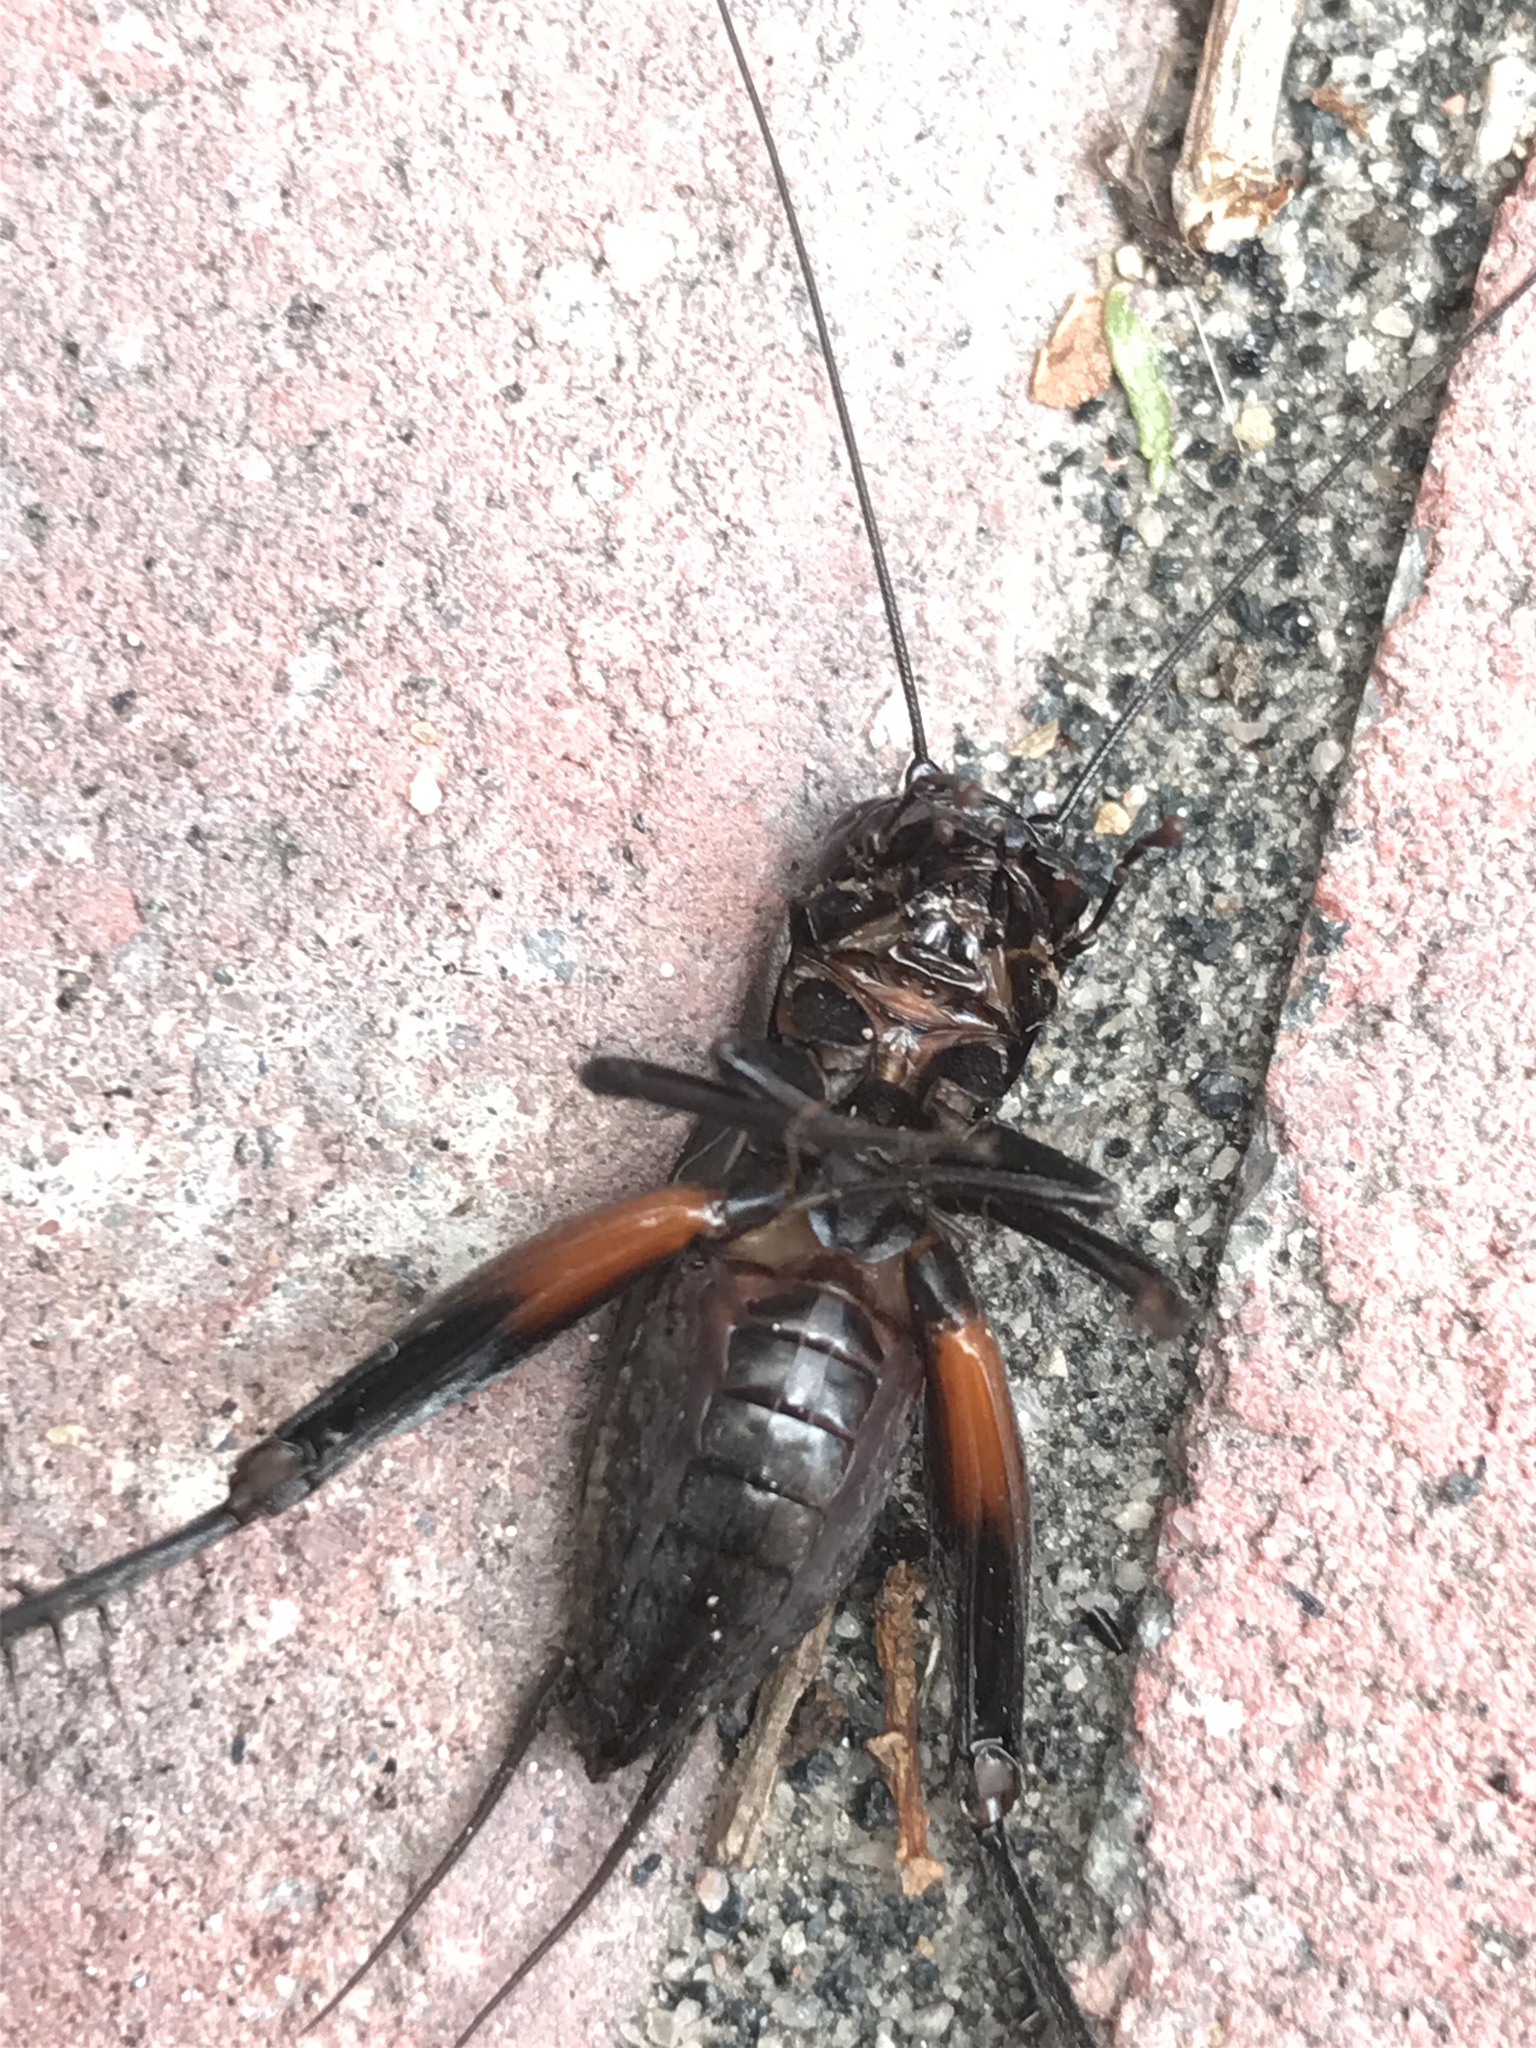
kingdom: Animalia
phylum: Arthropoda
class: Insecta
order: Orthoptera
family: Gryllidae
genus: Gryllus
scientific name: Gryllus pennsylvanicus
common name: Fall field cricket
